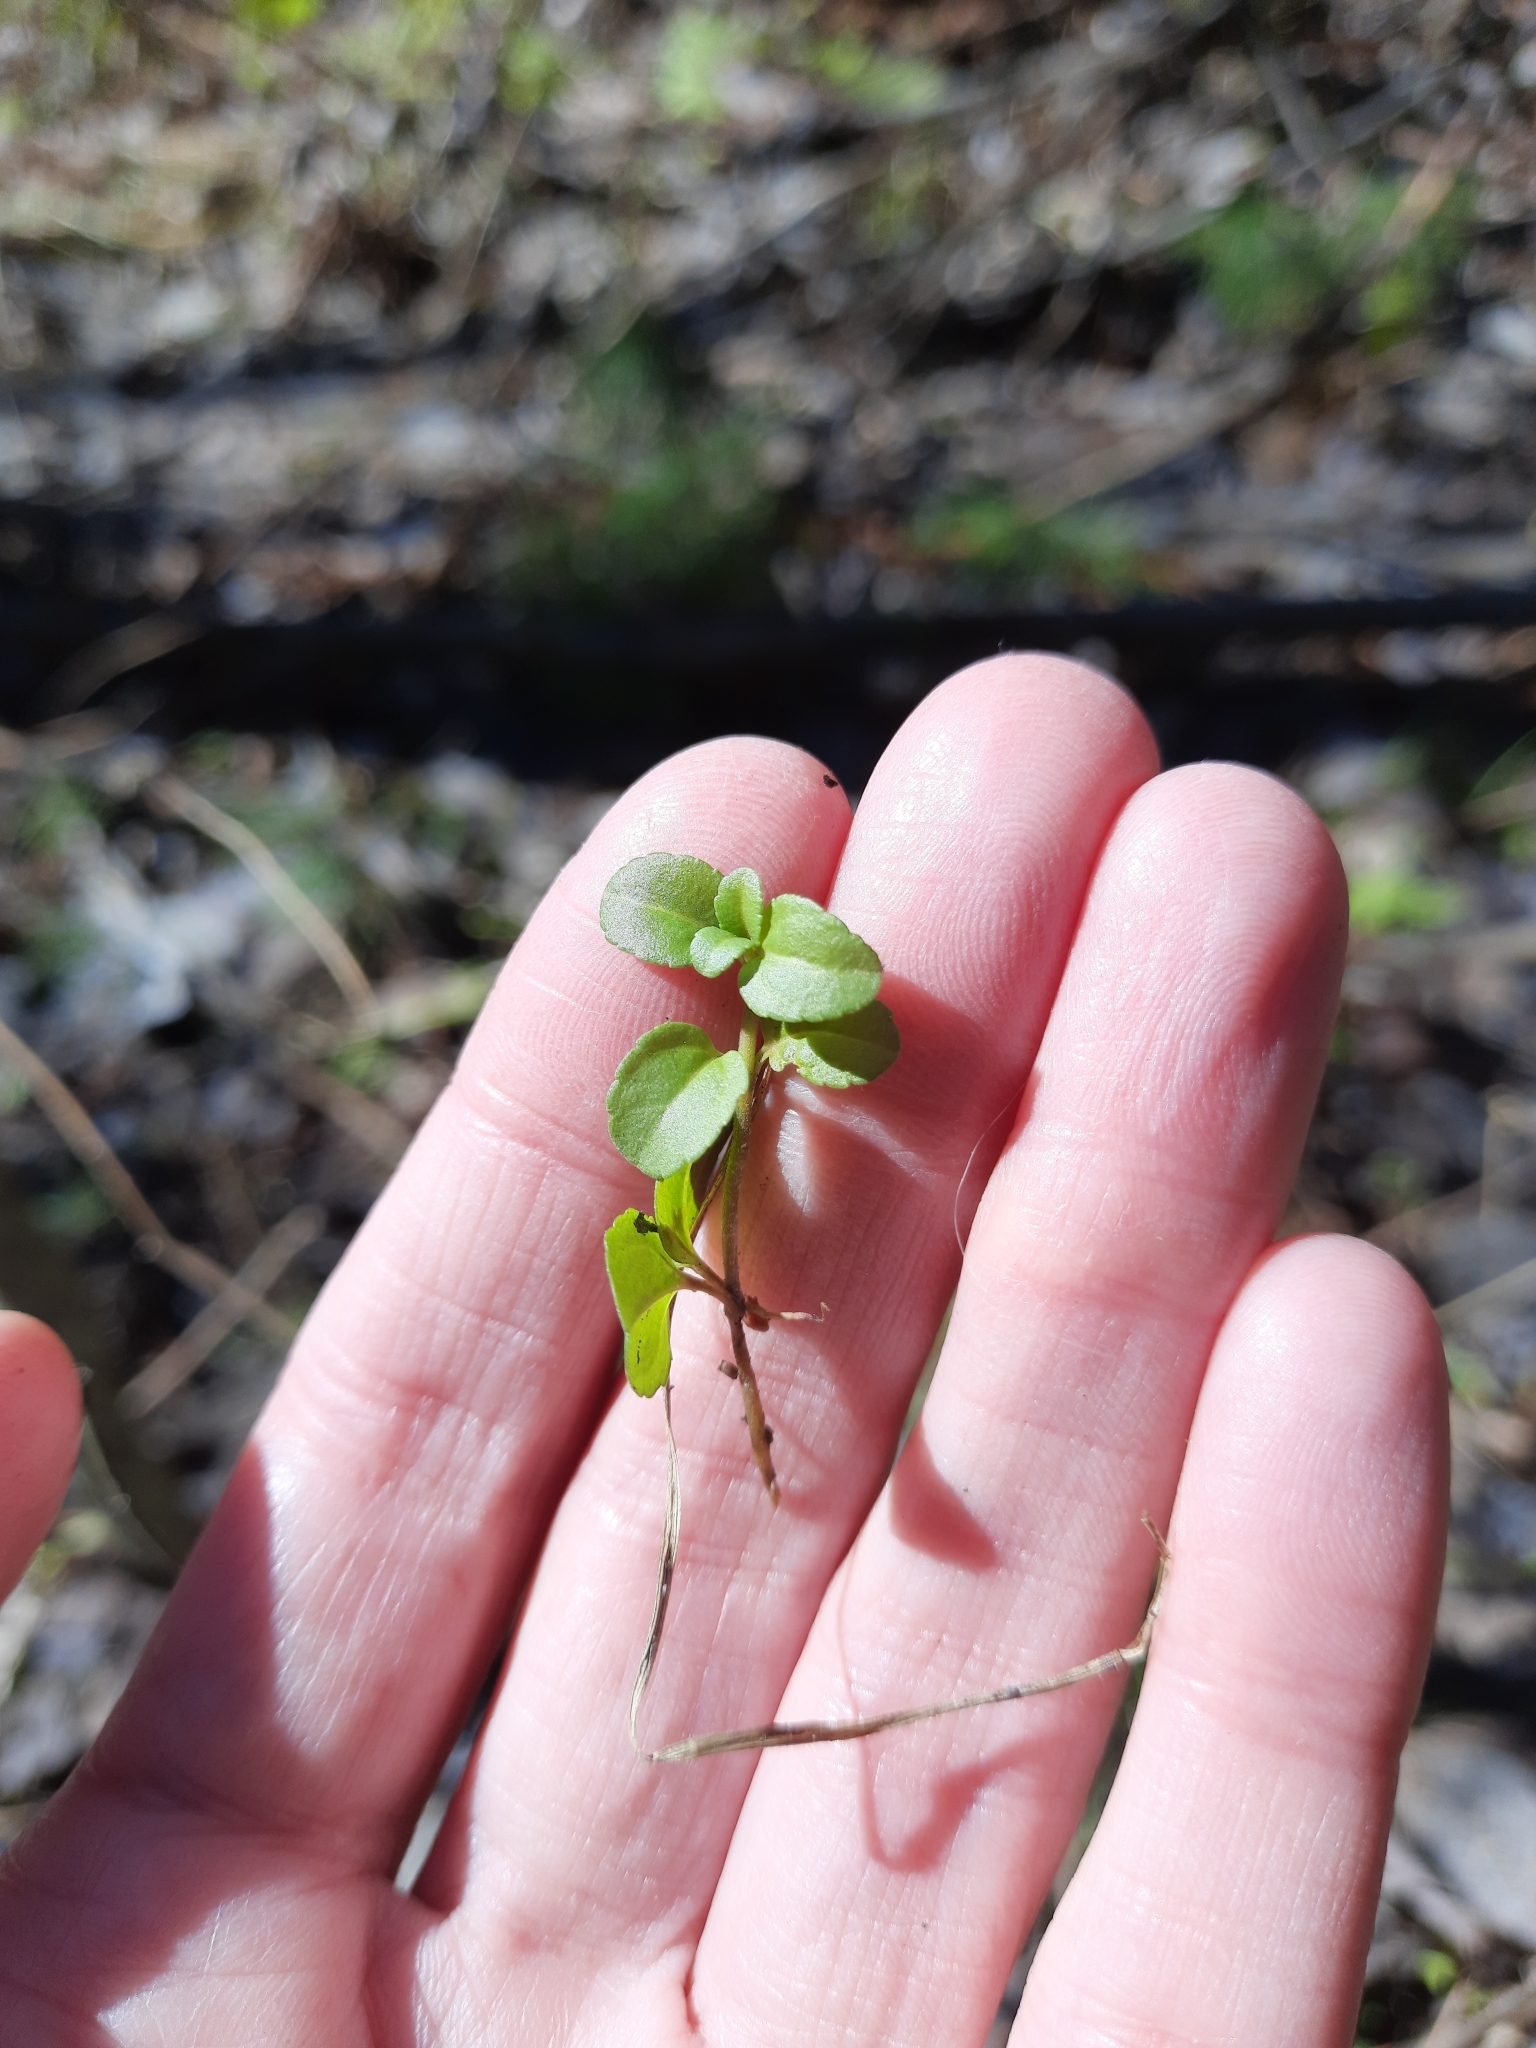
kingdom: Plantae
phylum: Tracheophyta
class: Magnoliopsida
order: Dipsacales
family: Caprifoliaceae
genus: Linnaea
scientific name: Linnaea borealis
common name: Twinflower
